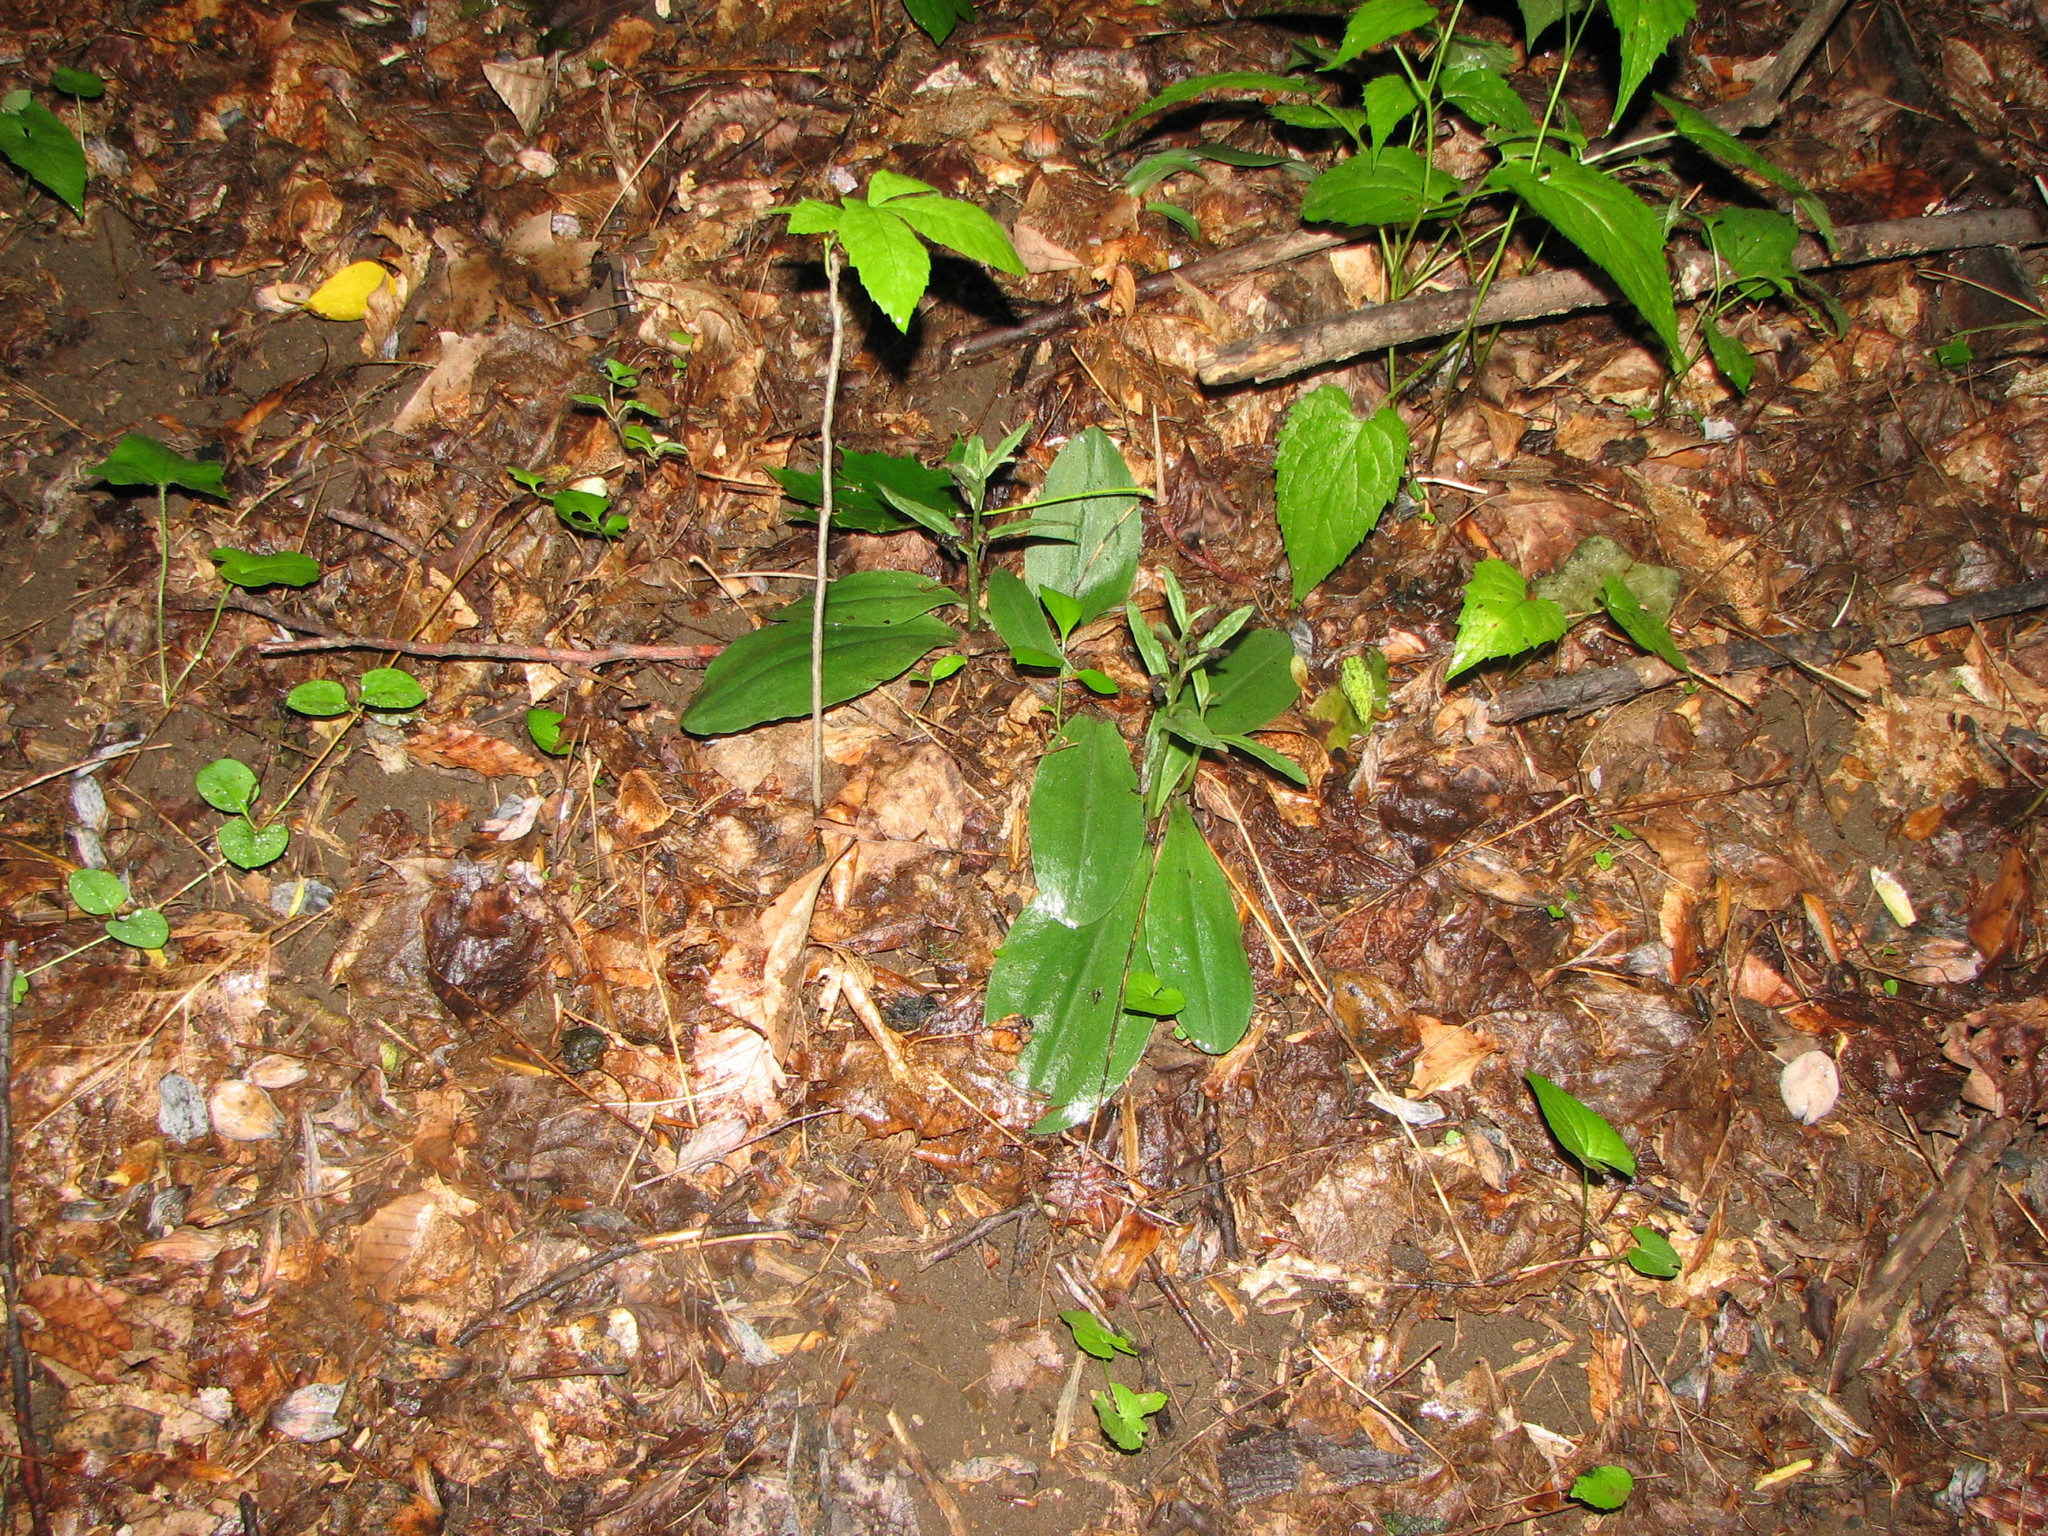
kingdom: Plantae
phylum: Tracheophyta
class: Liliopsida
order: Asparagales
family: Orchidaceae
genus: Galearis
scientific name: Galearis spectabilis
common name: Purple-hooded orchis
